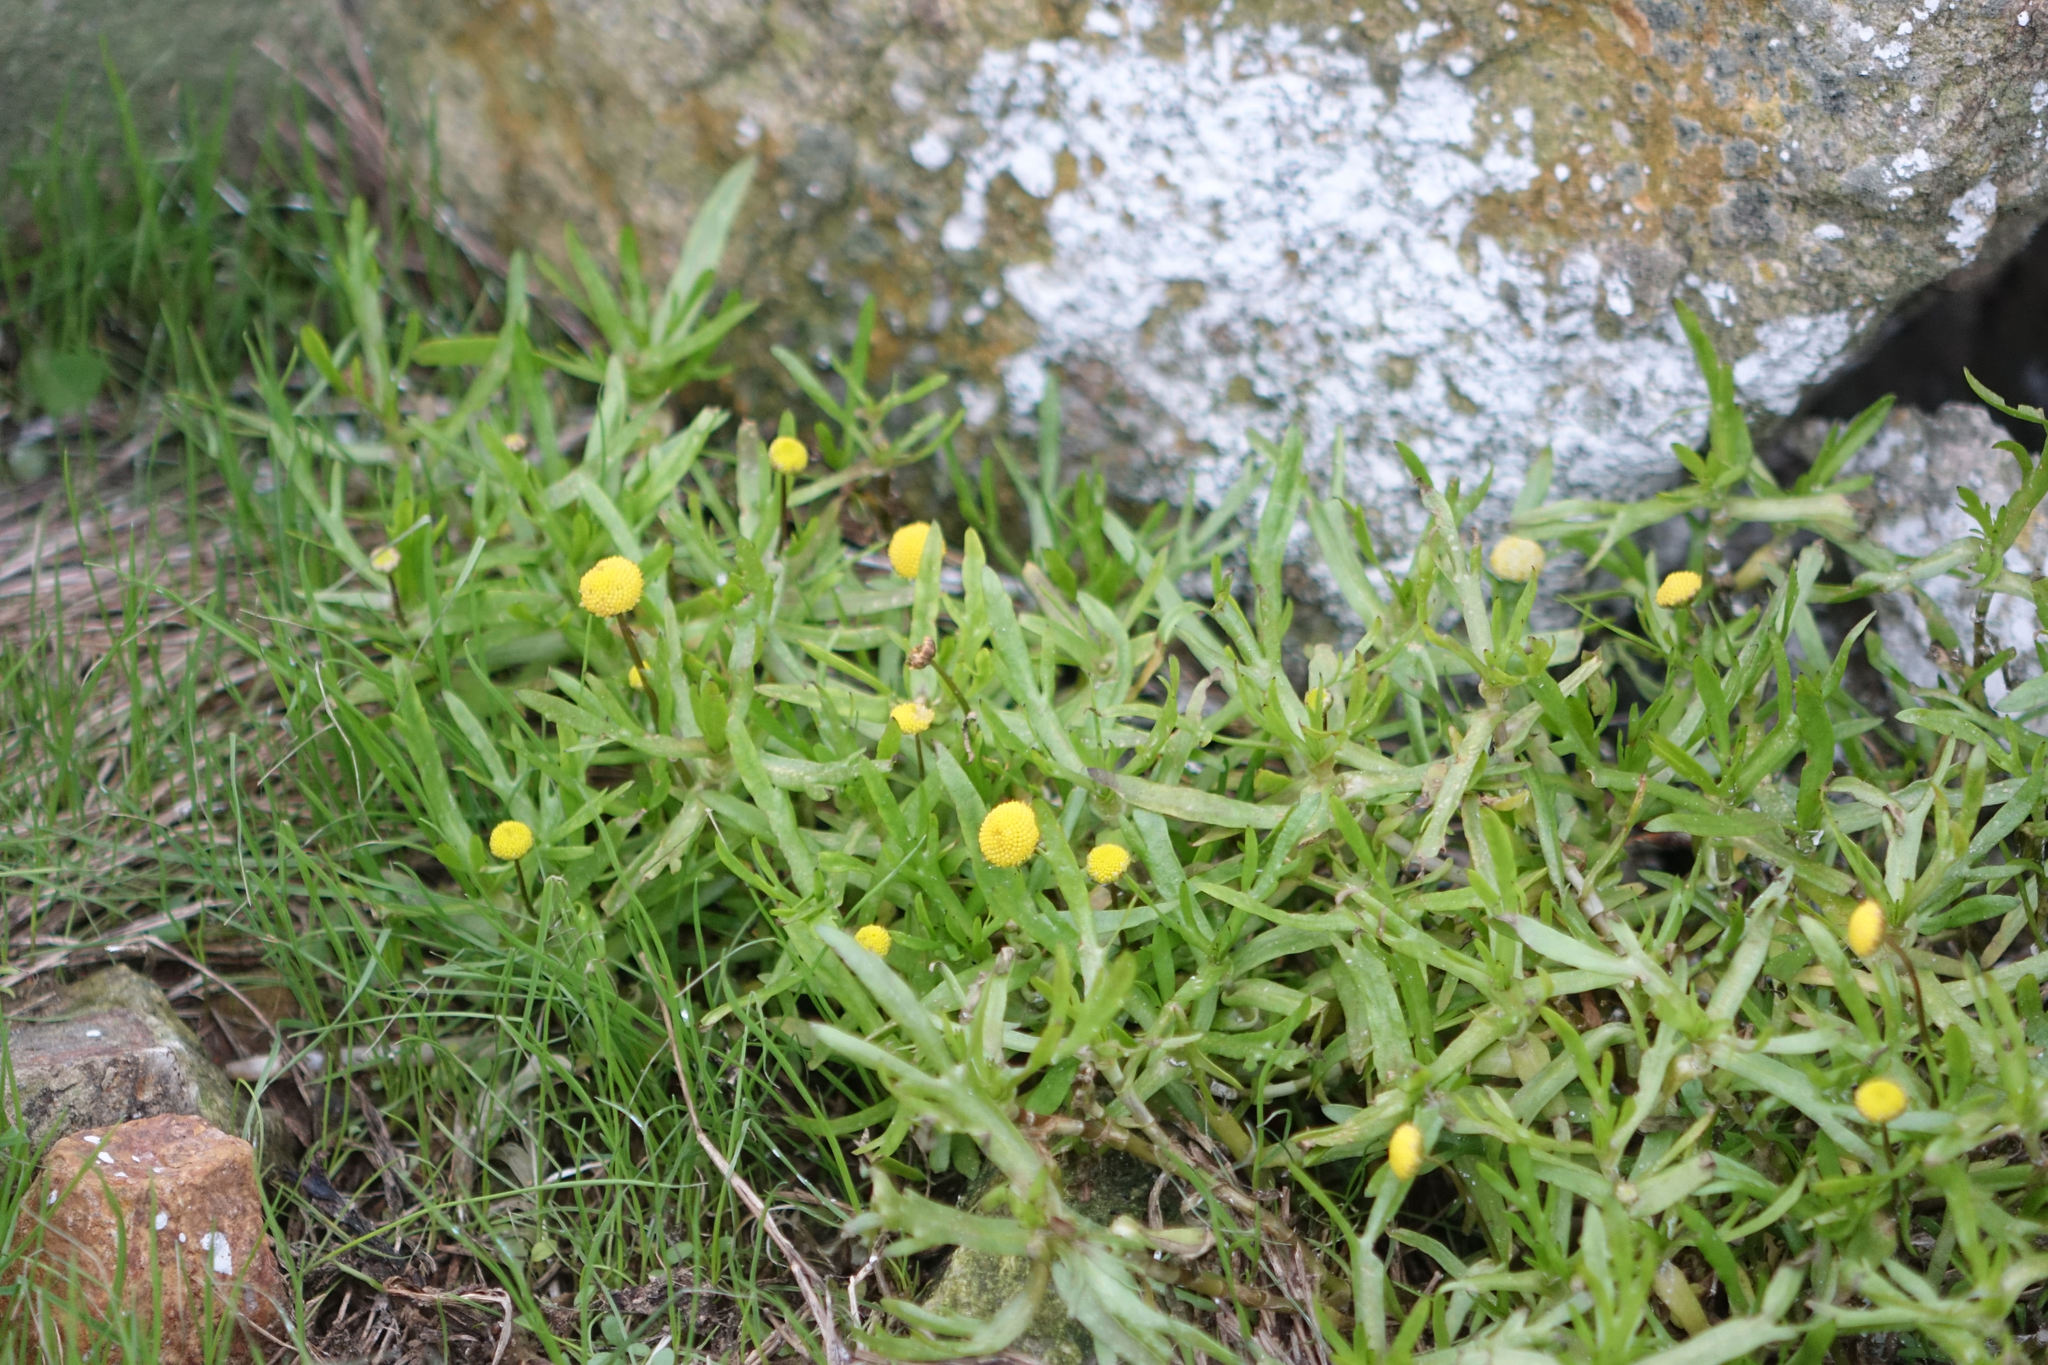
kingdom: Plantae
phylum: Tracheophyta
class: Magnoliopsida
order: Asterales
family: Asteraceae
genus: Cotula
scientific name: Cotula coronopifolia
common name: Buttonweed
